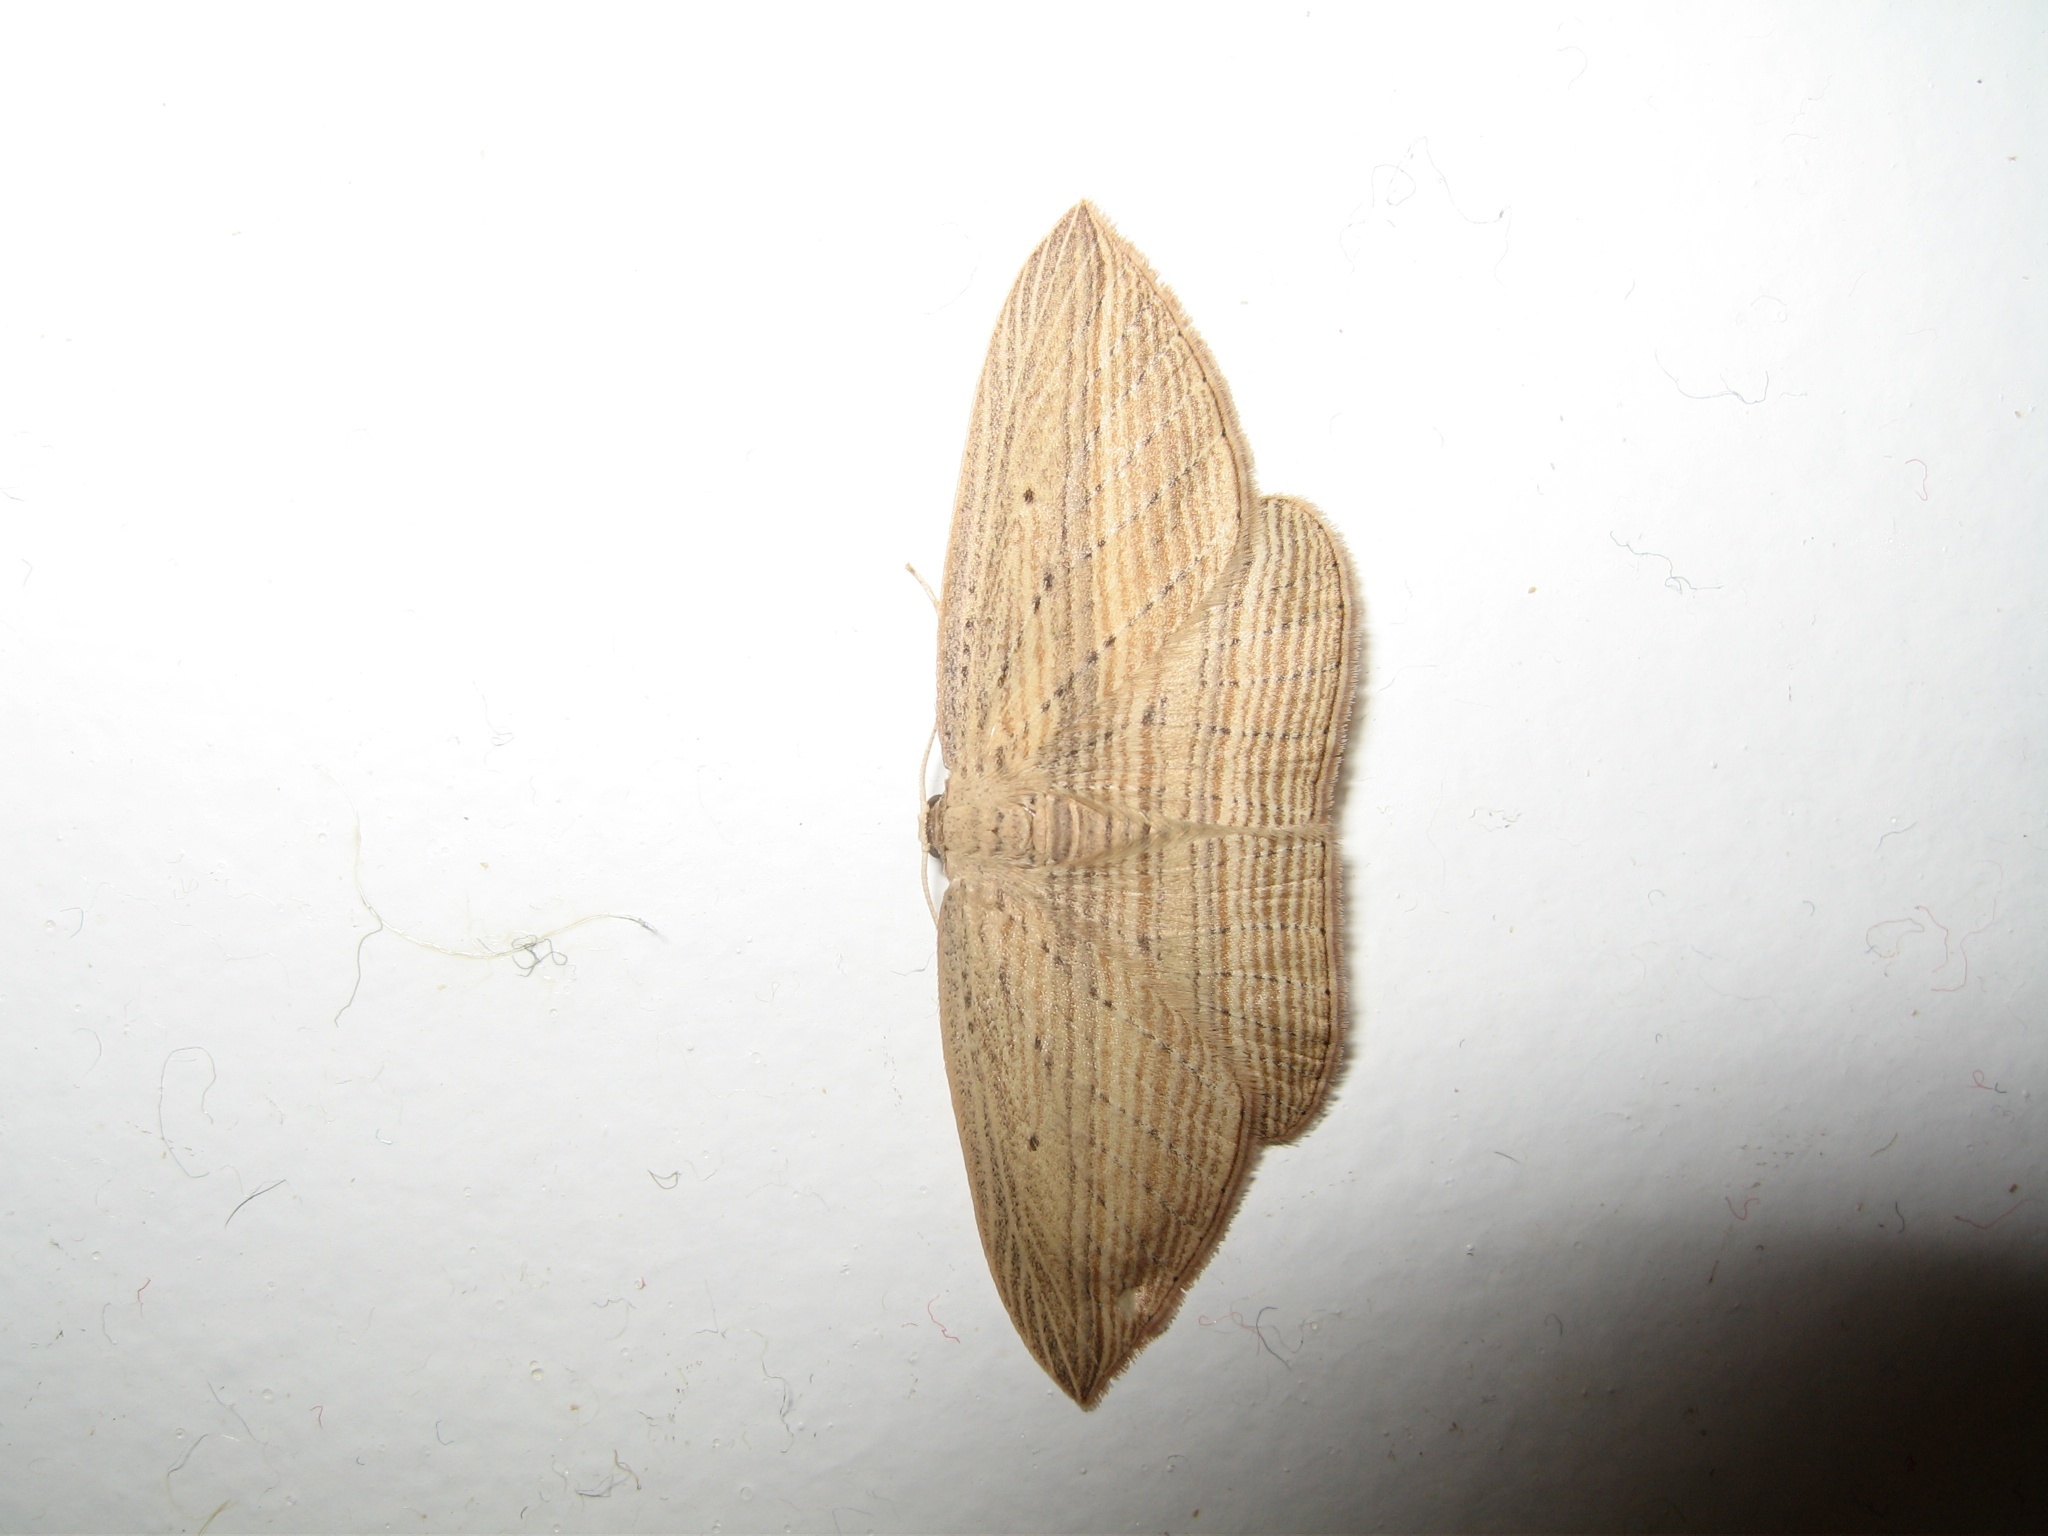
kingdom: Animalia
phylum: Arthropoda
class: Insecta
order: Lepidoptera
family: Geometridae
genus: Epiphryne
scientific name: Epiphryne verriculata
